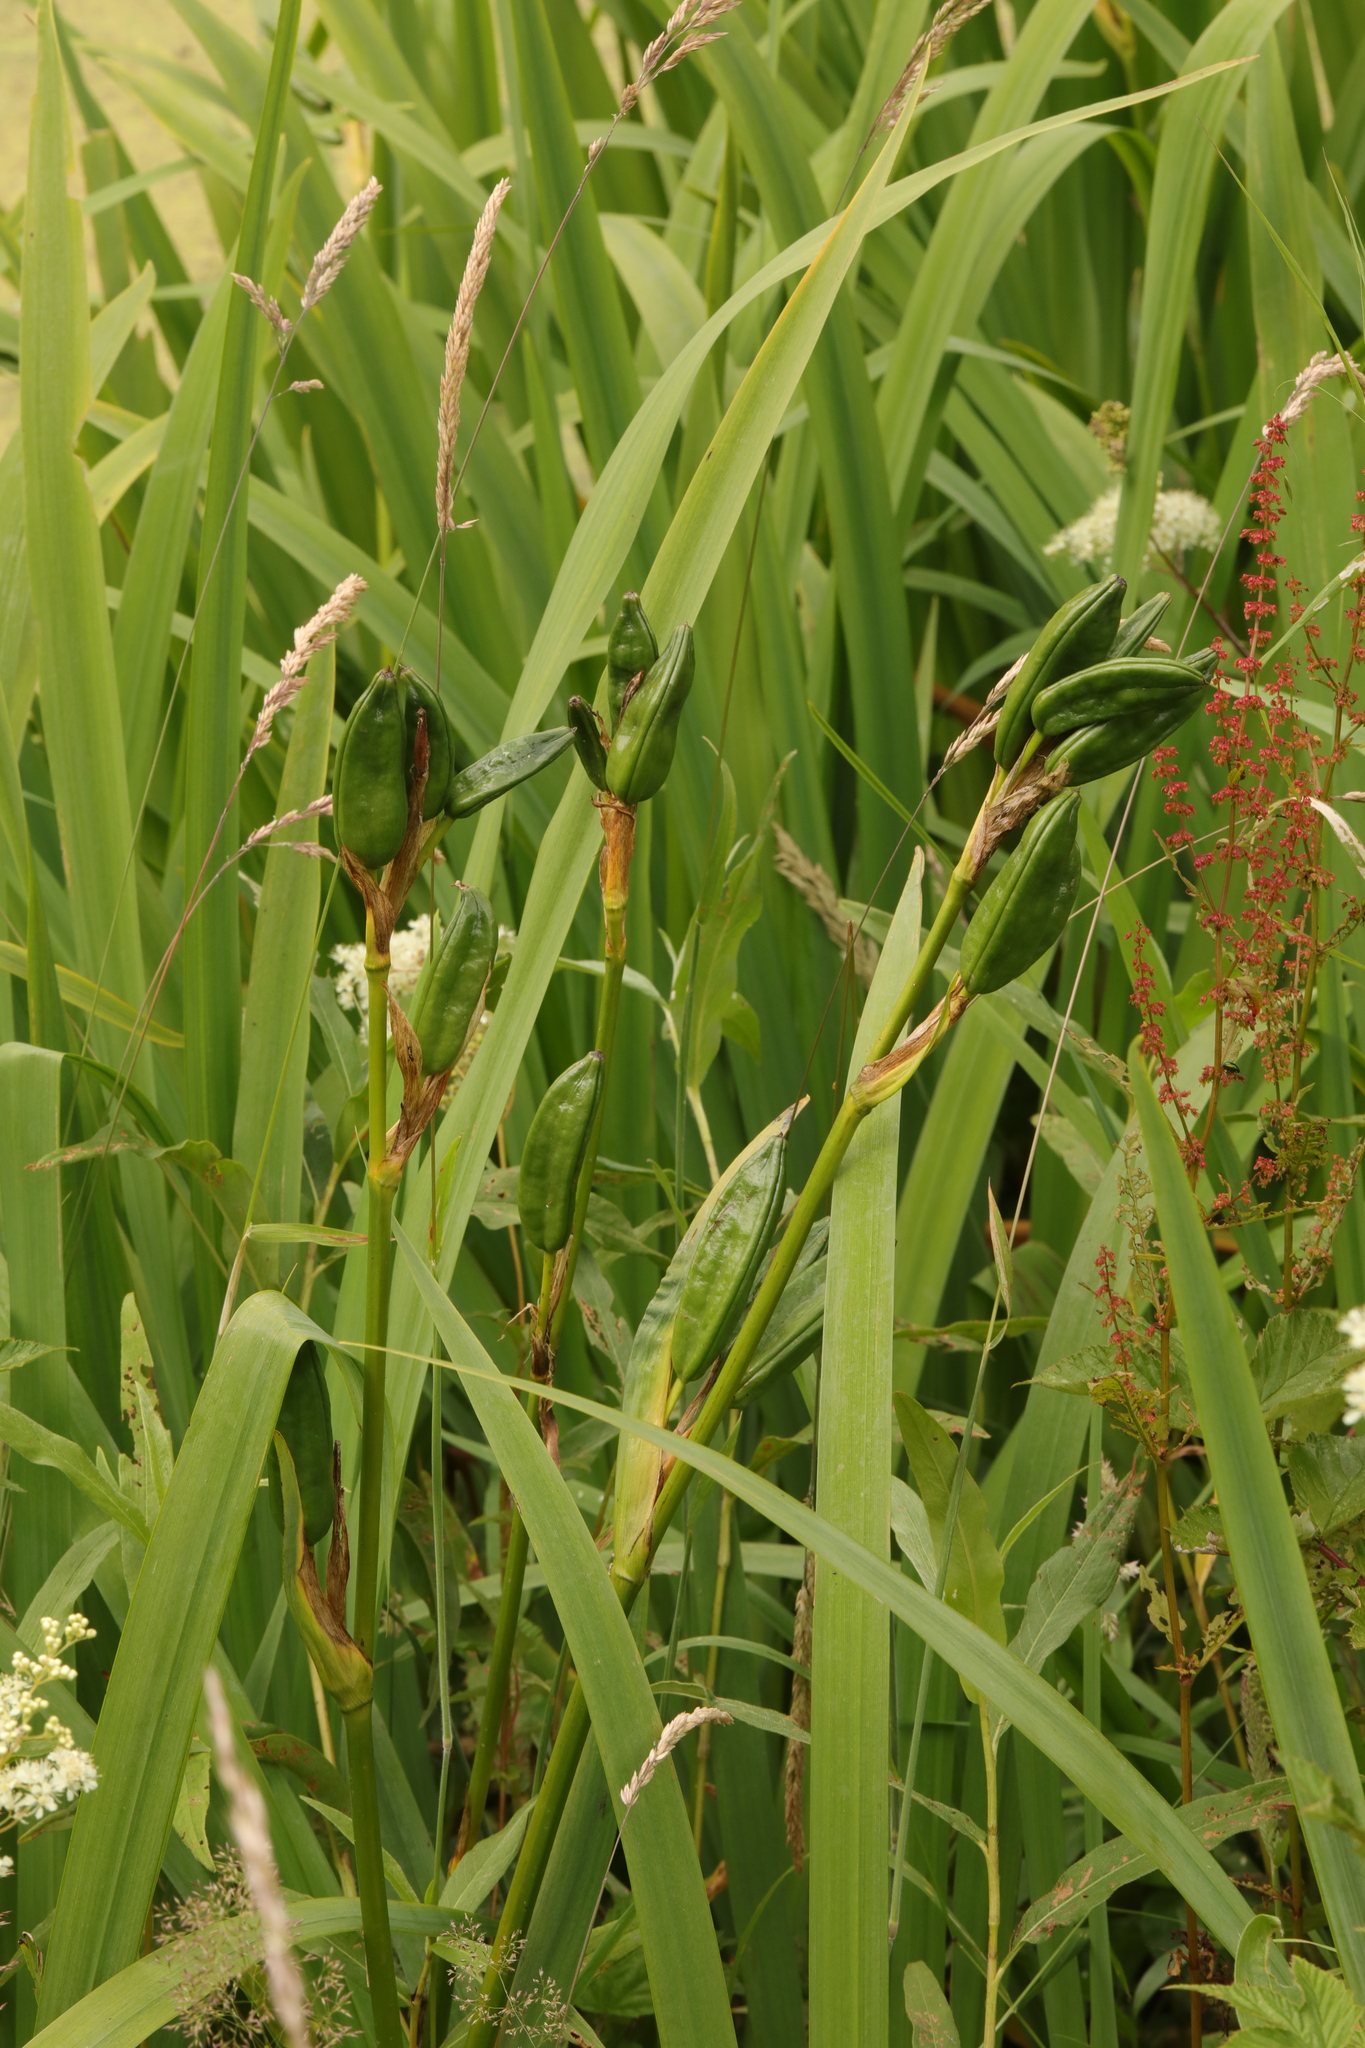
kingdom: Plantae
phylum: Tracheophyta
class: Liliopsida
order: Asparagales
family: Iridaceae
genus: Iris
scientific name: Iris pseudacorus
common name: Yellow flag
